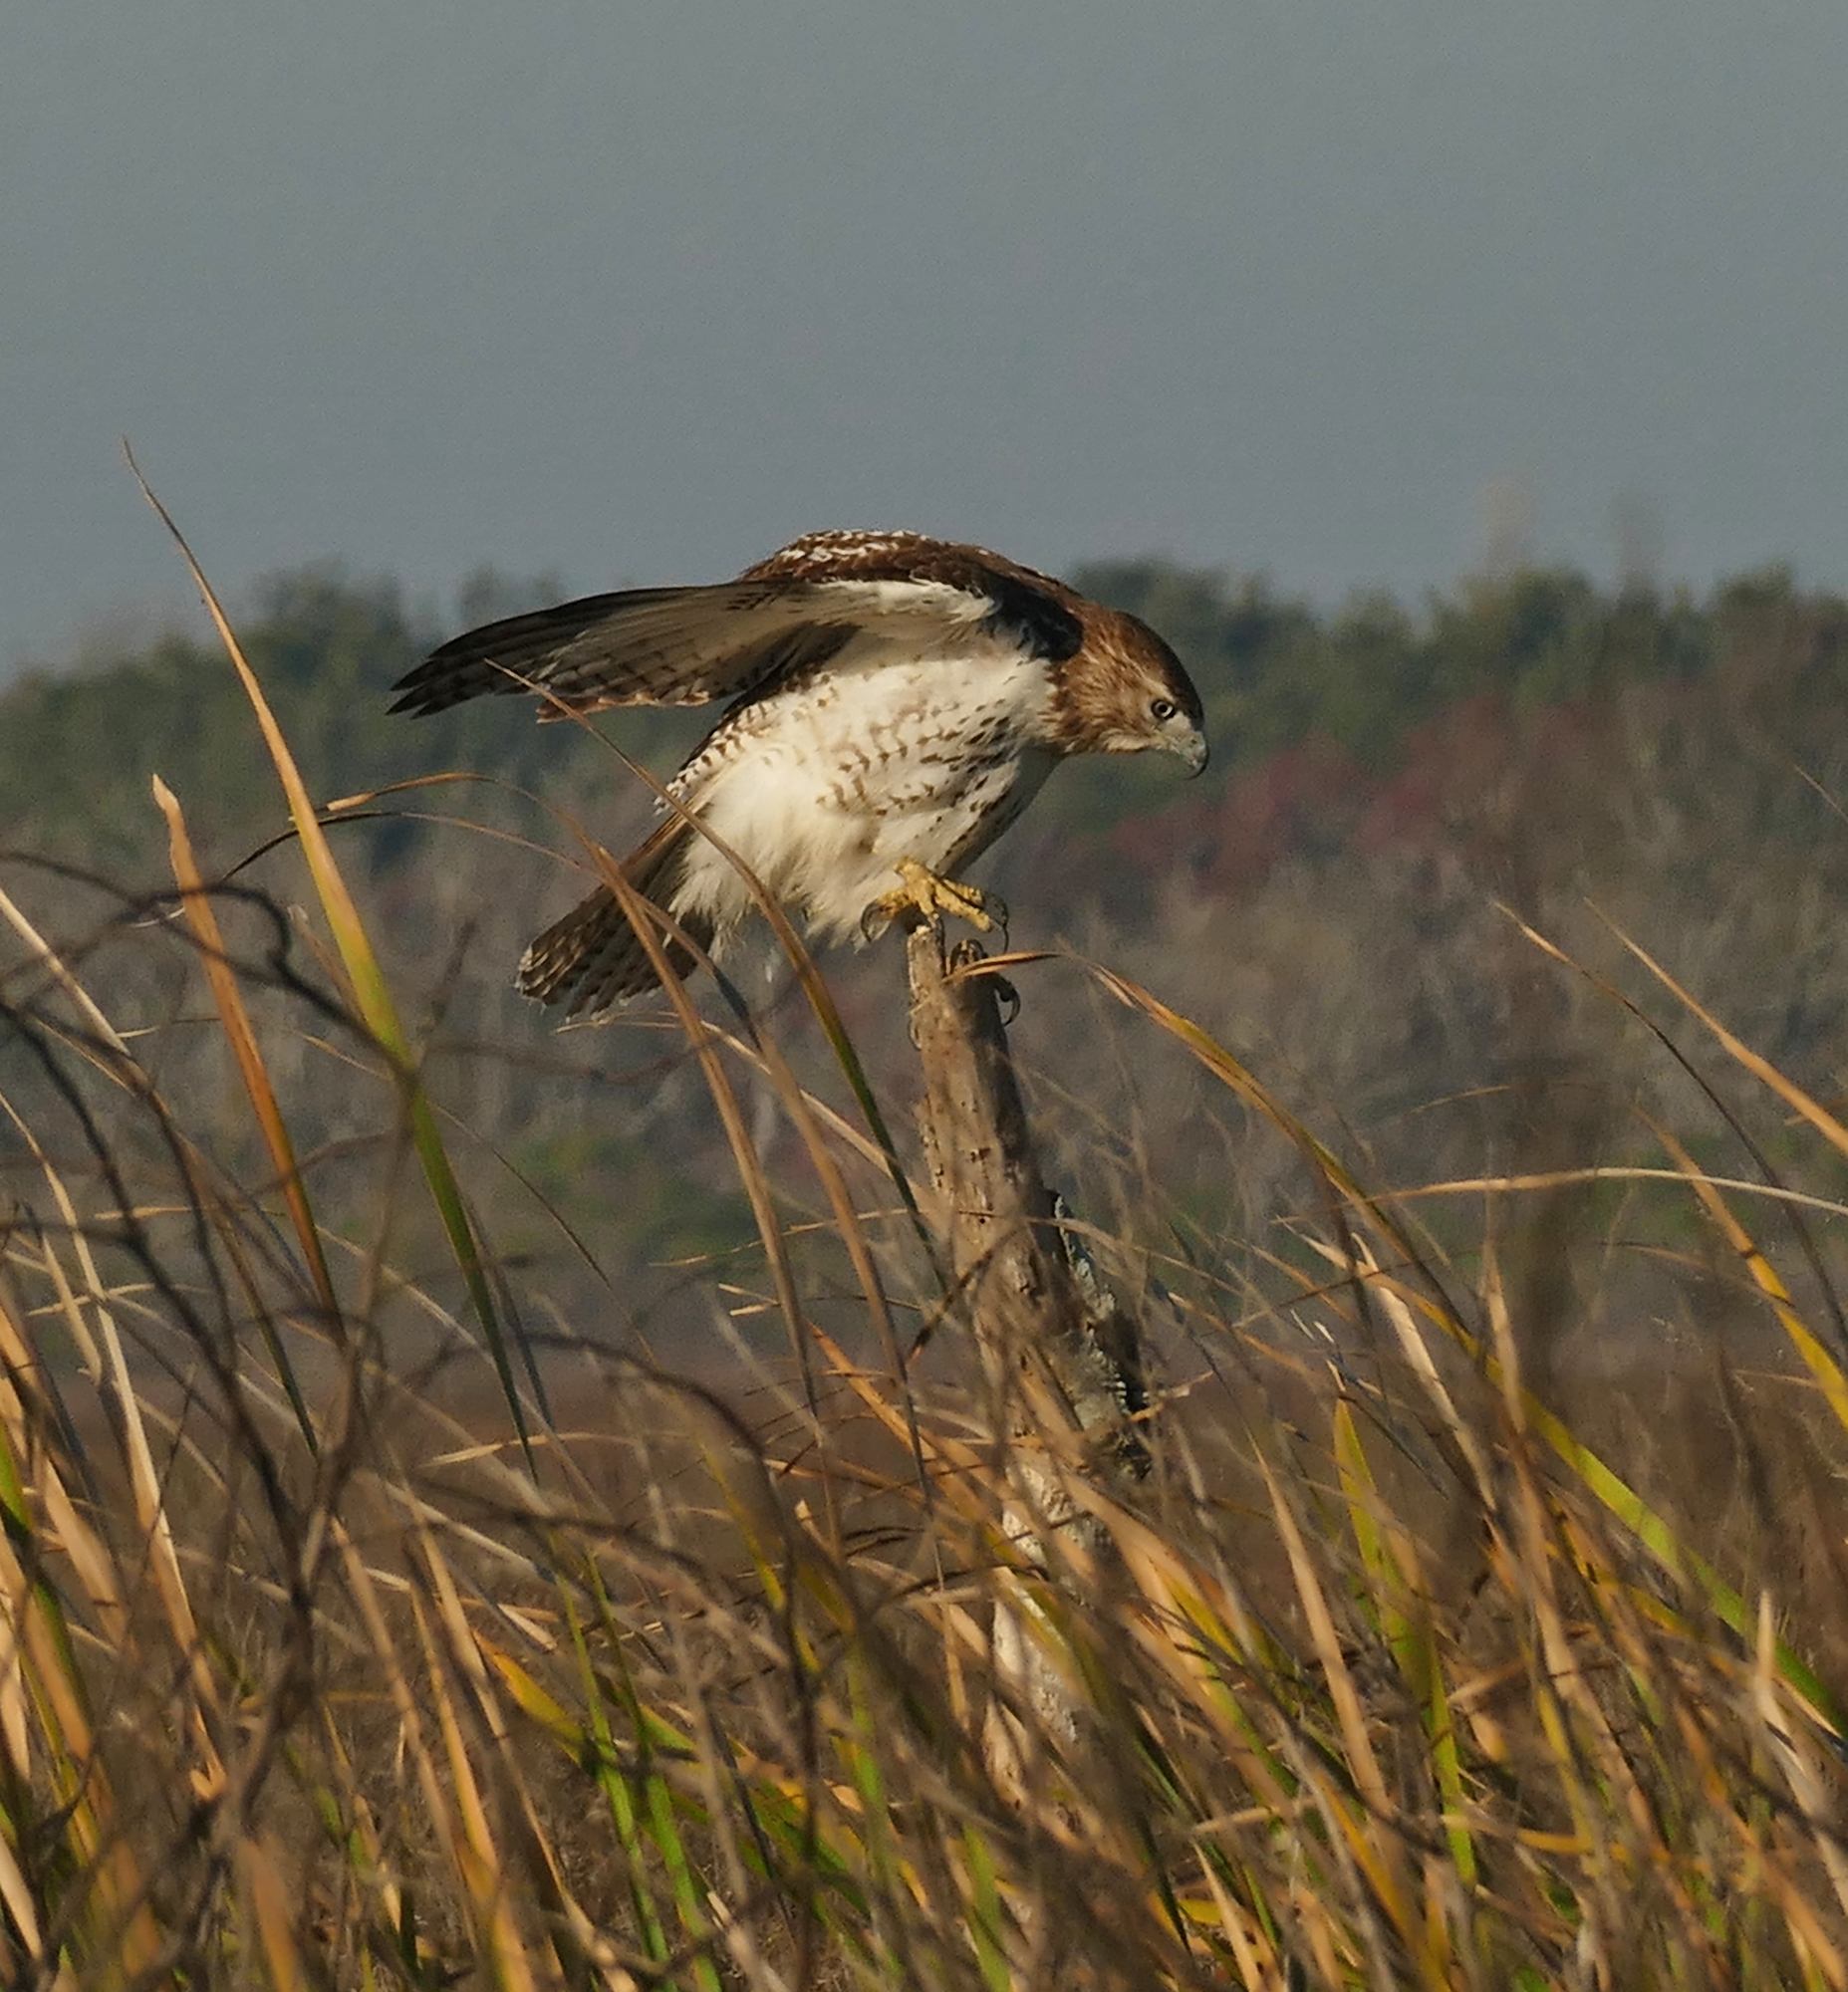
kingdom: Animalia
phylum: Chordata
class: Aves
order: Accipitriformes
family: Accipitridae
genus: Buteo
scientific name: Buteo jamaicensis
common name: Red-tailed hawk
